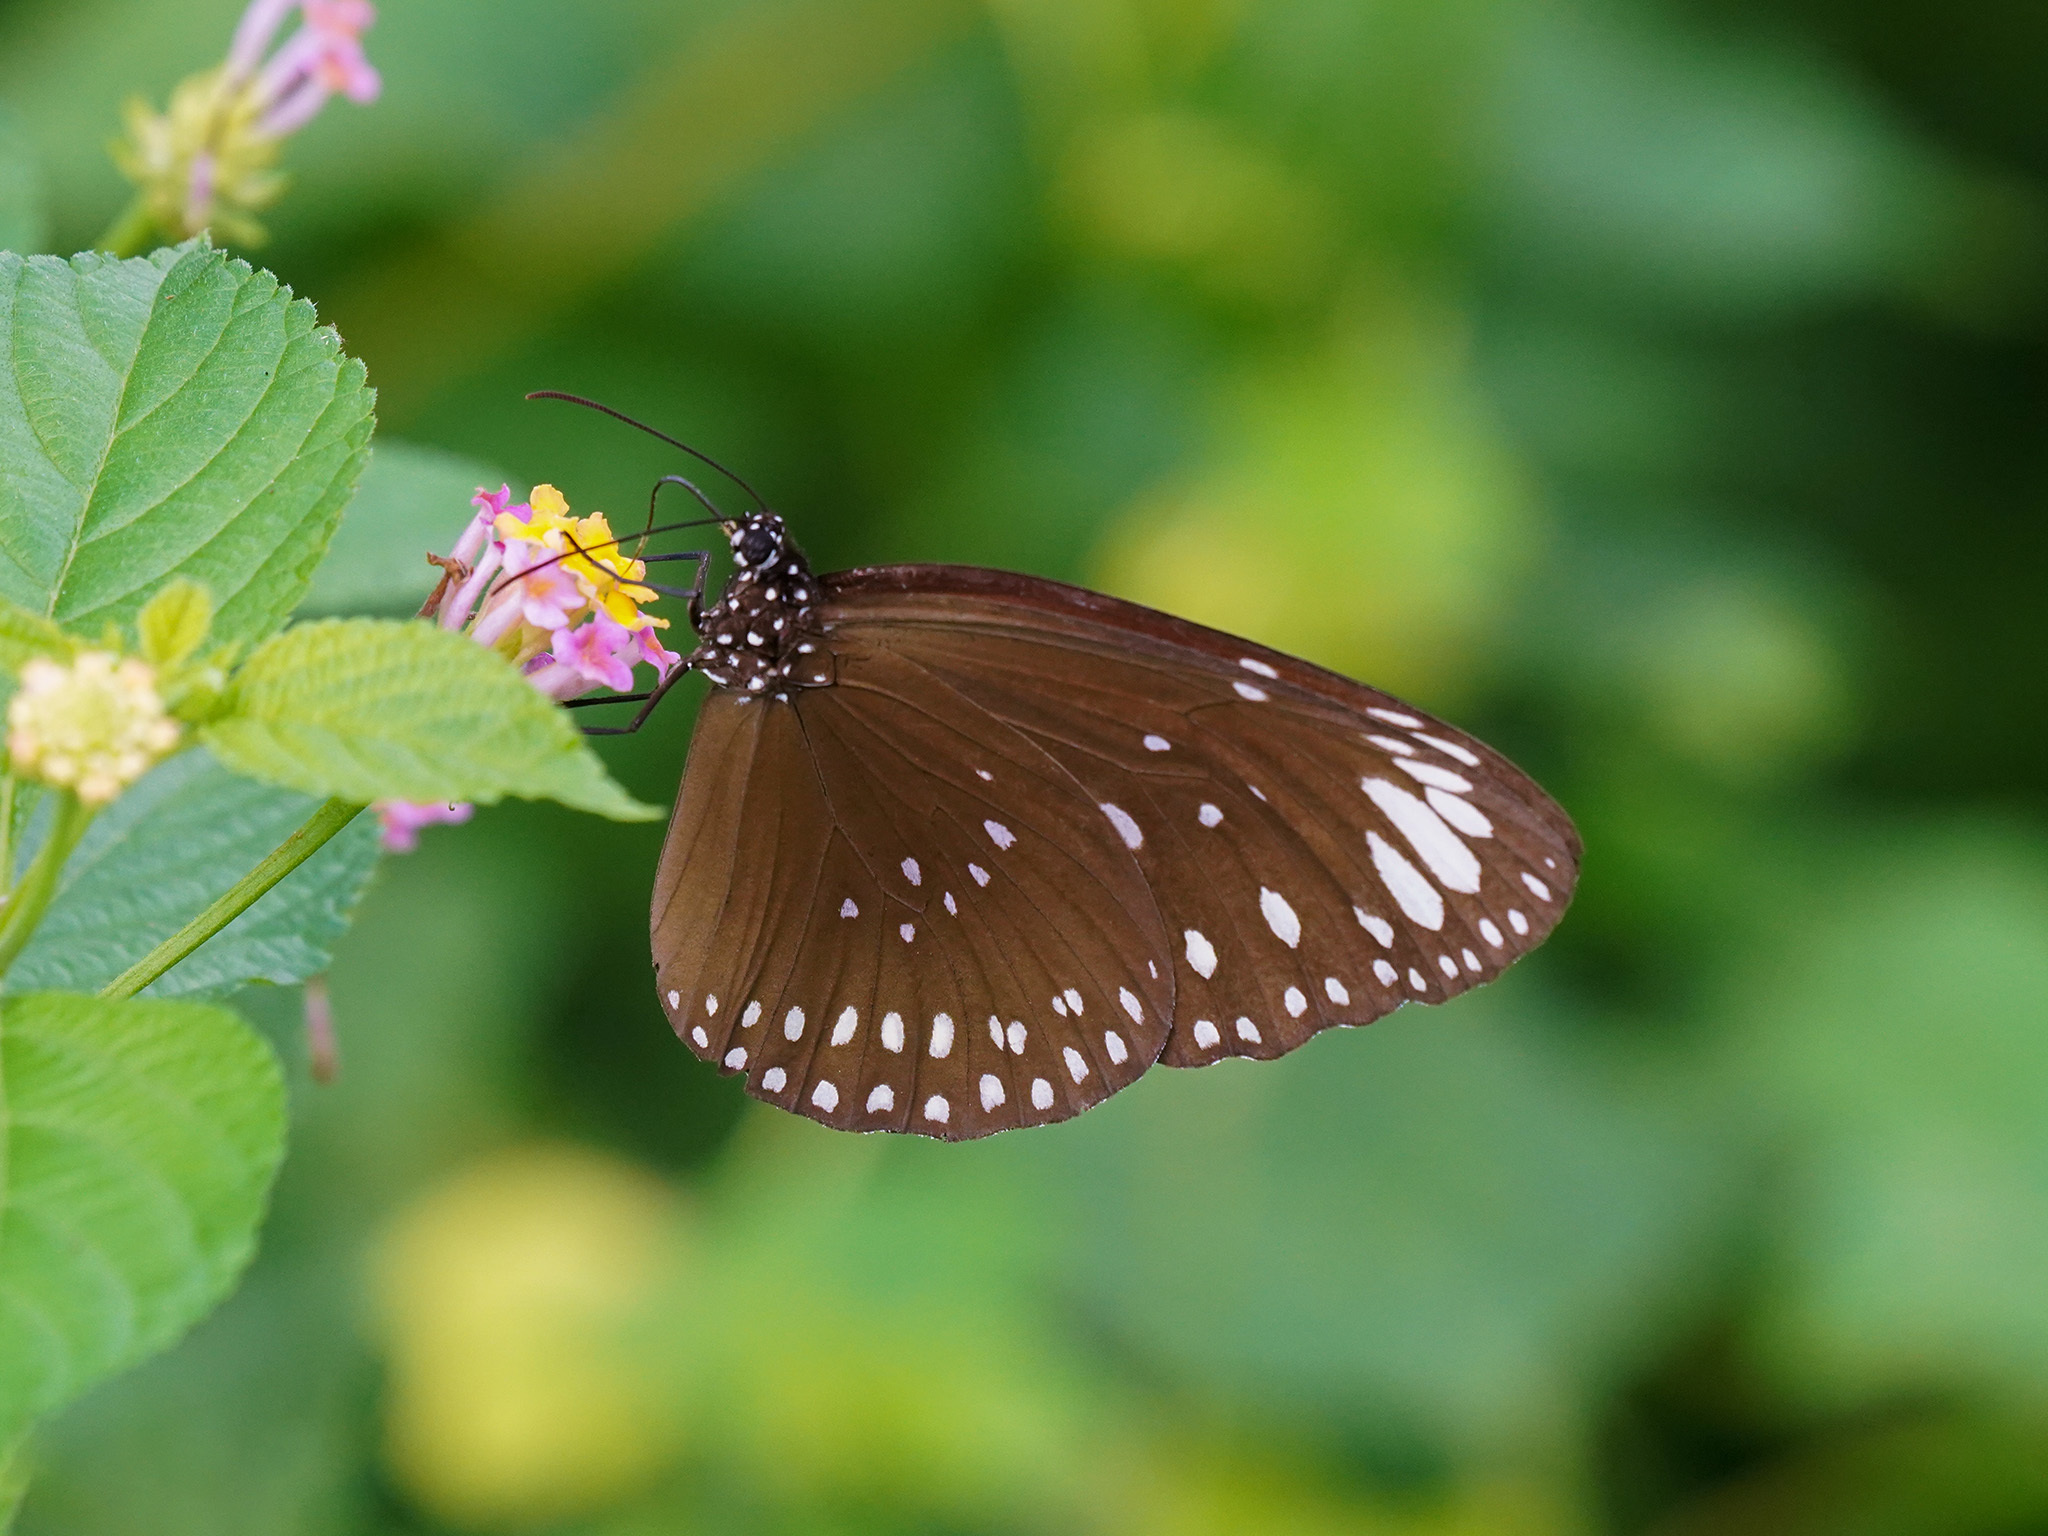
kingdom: Animalia
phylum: Arthropoda
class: Insecta
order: Lepidoptera
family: Nymphalidae
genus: Euploea
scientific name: Euploea crameri
